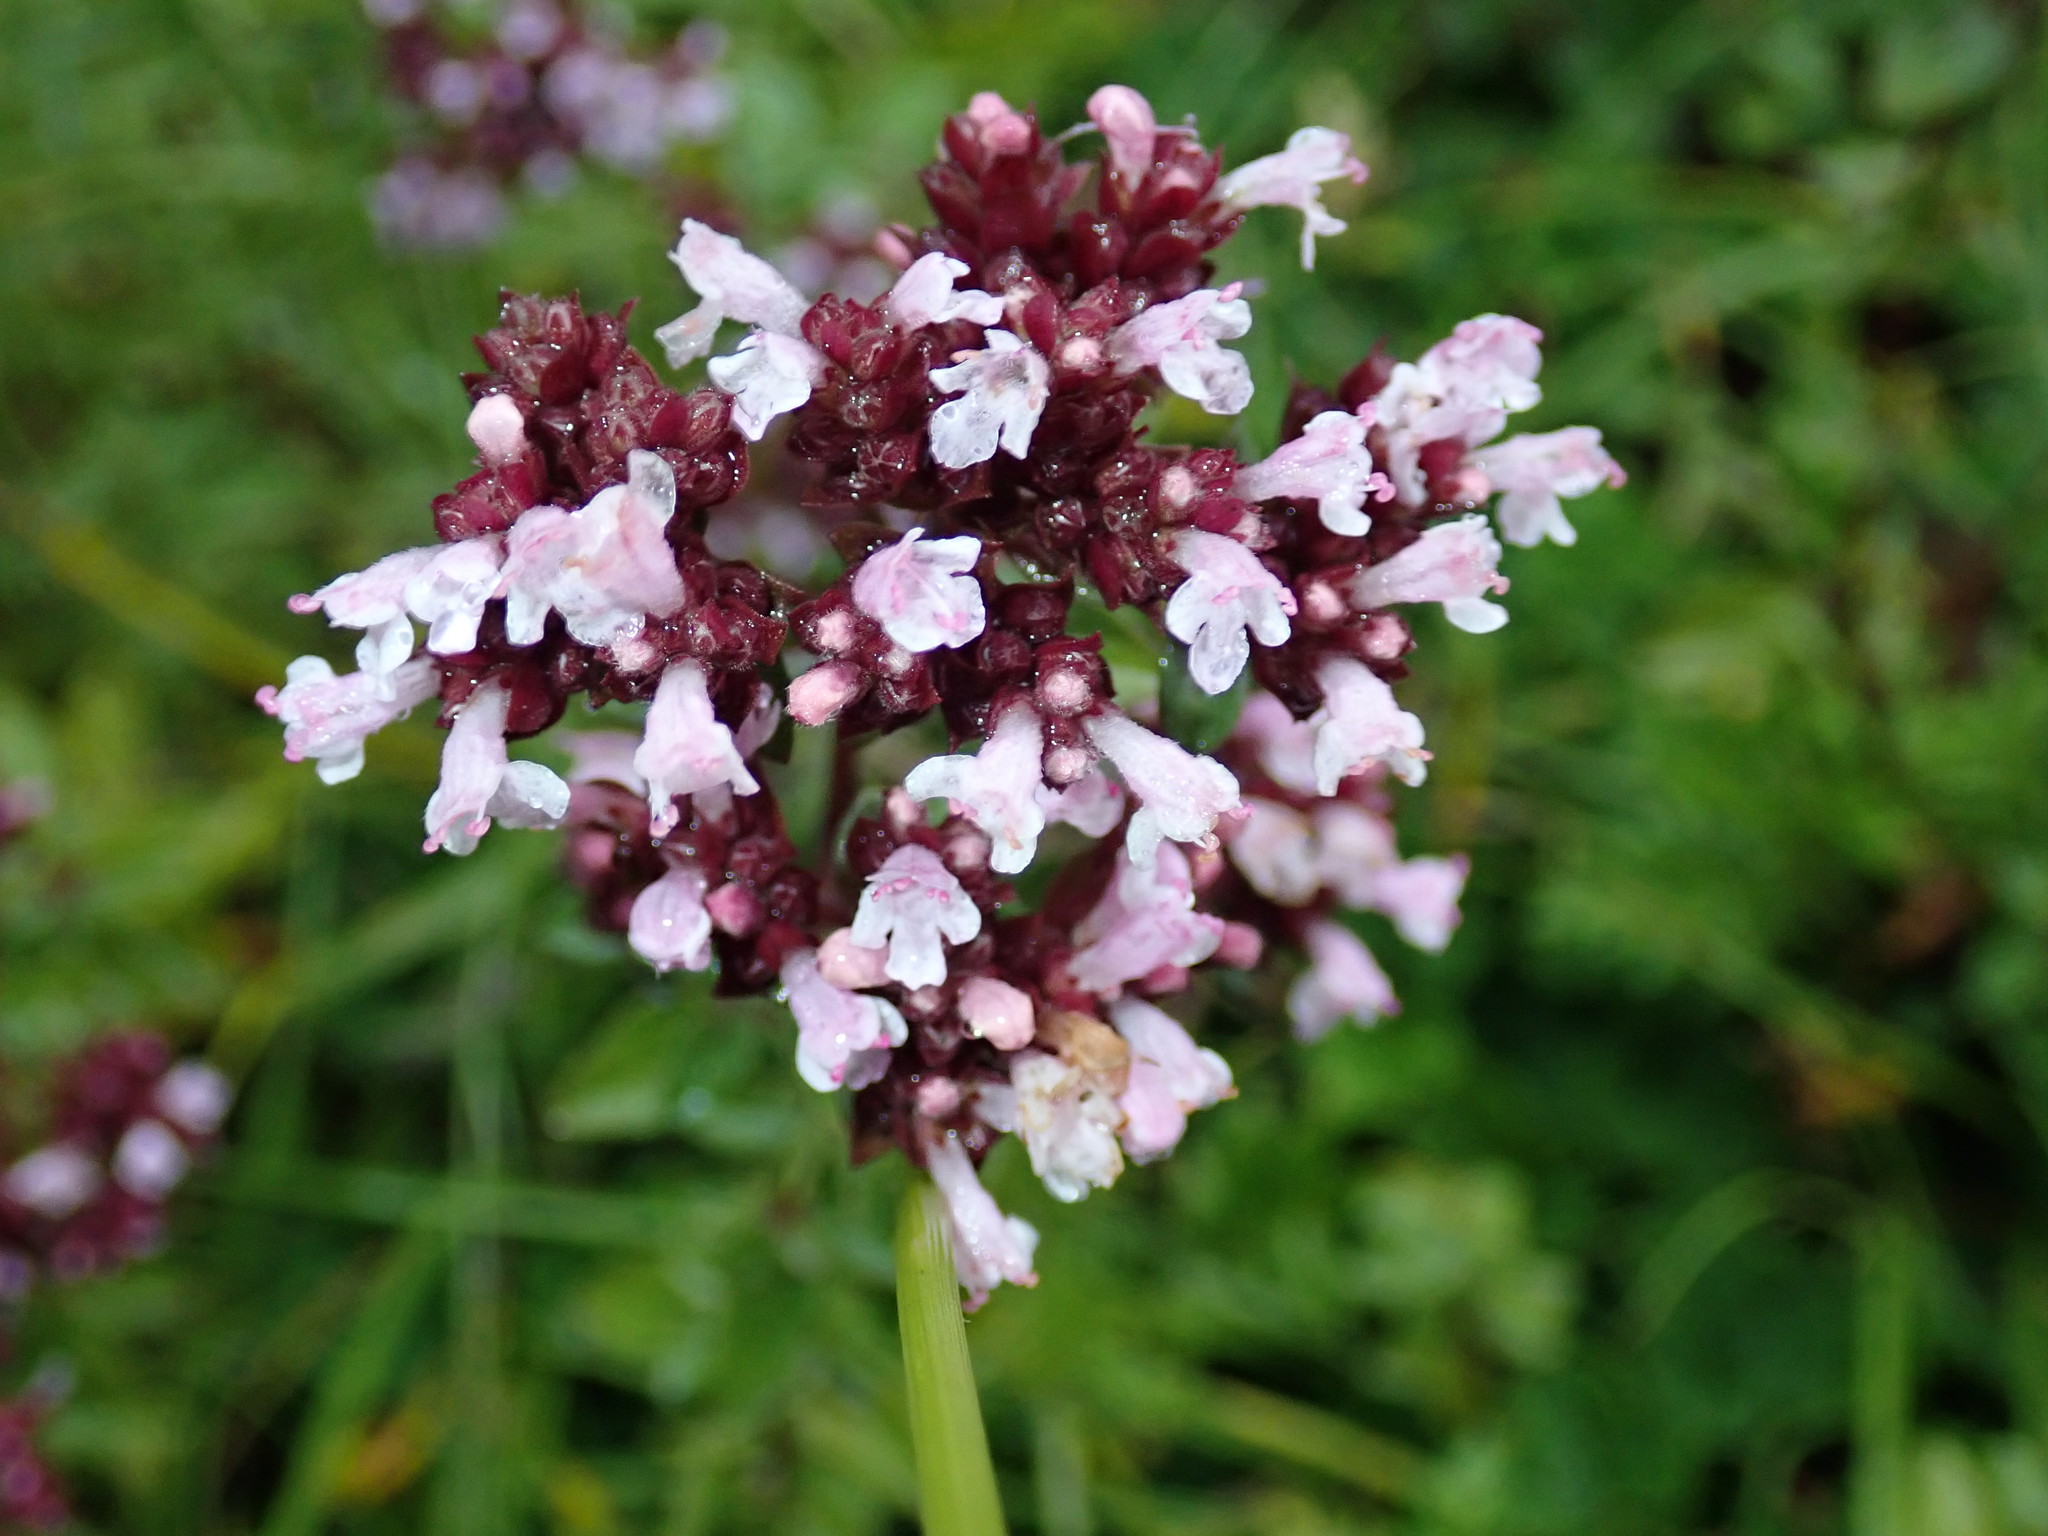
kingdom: Plantae
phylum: Tracheophyta
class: Magnoliopsida
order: Lamiales
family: Lamiaceae
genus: Origanum
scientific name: Origanum vulgare
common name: Wild marjoram
